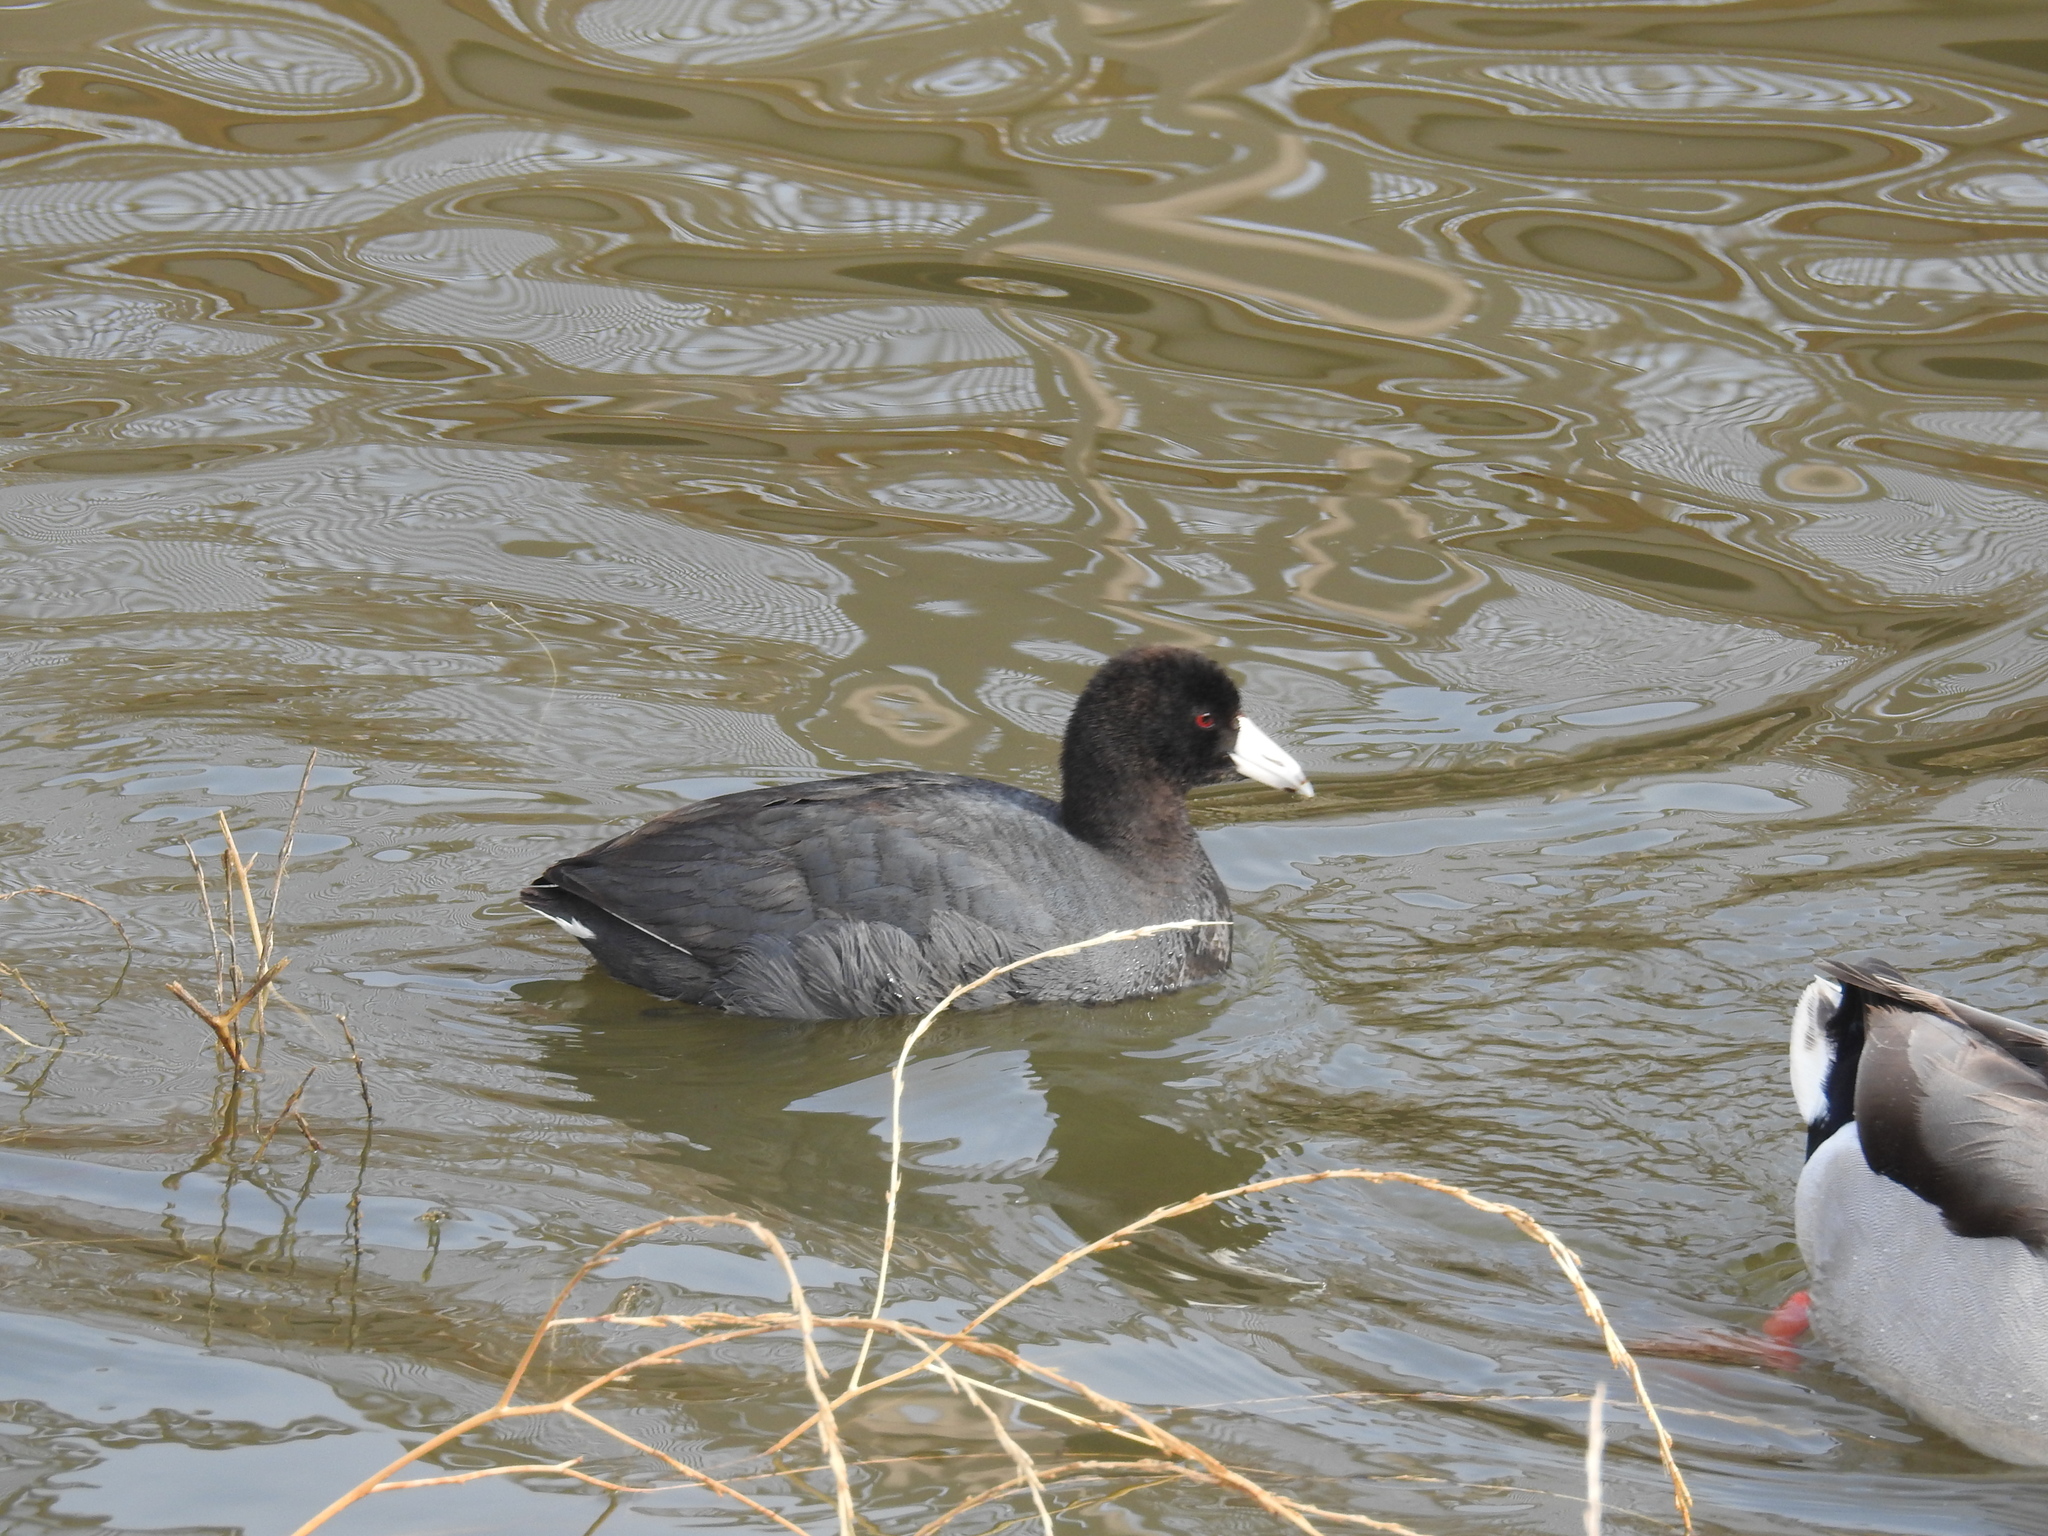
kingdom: Animalia
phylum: Chordata
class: Aves
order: Gruiformes
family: Rallidae
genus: Fulica
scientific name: Fulica americana
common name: American coot
